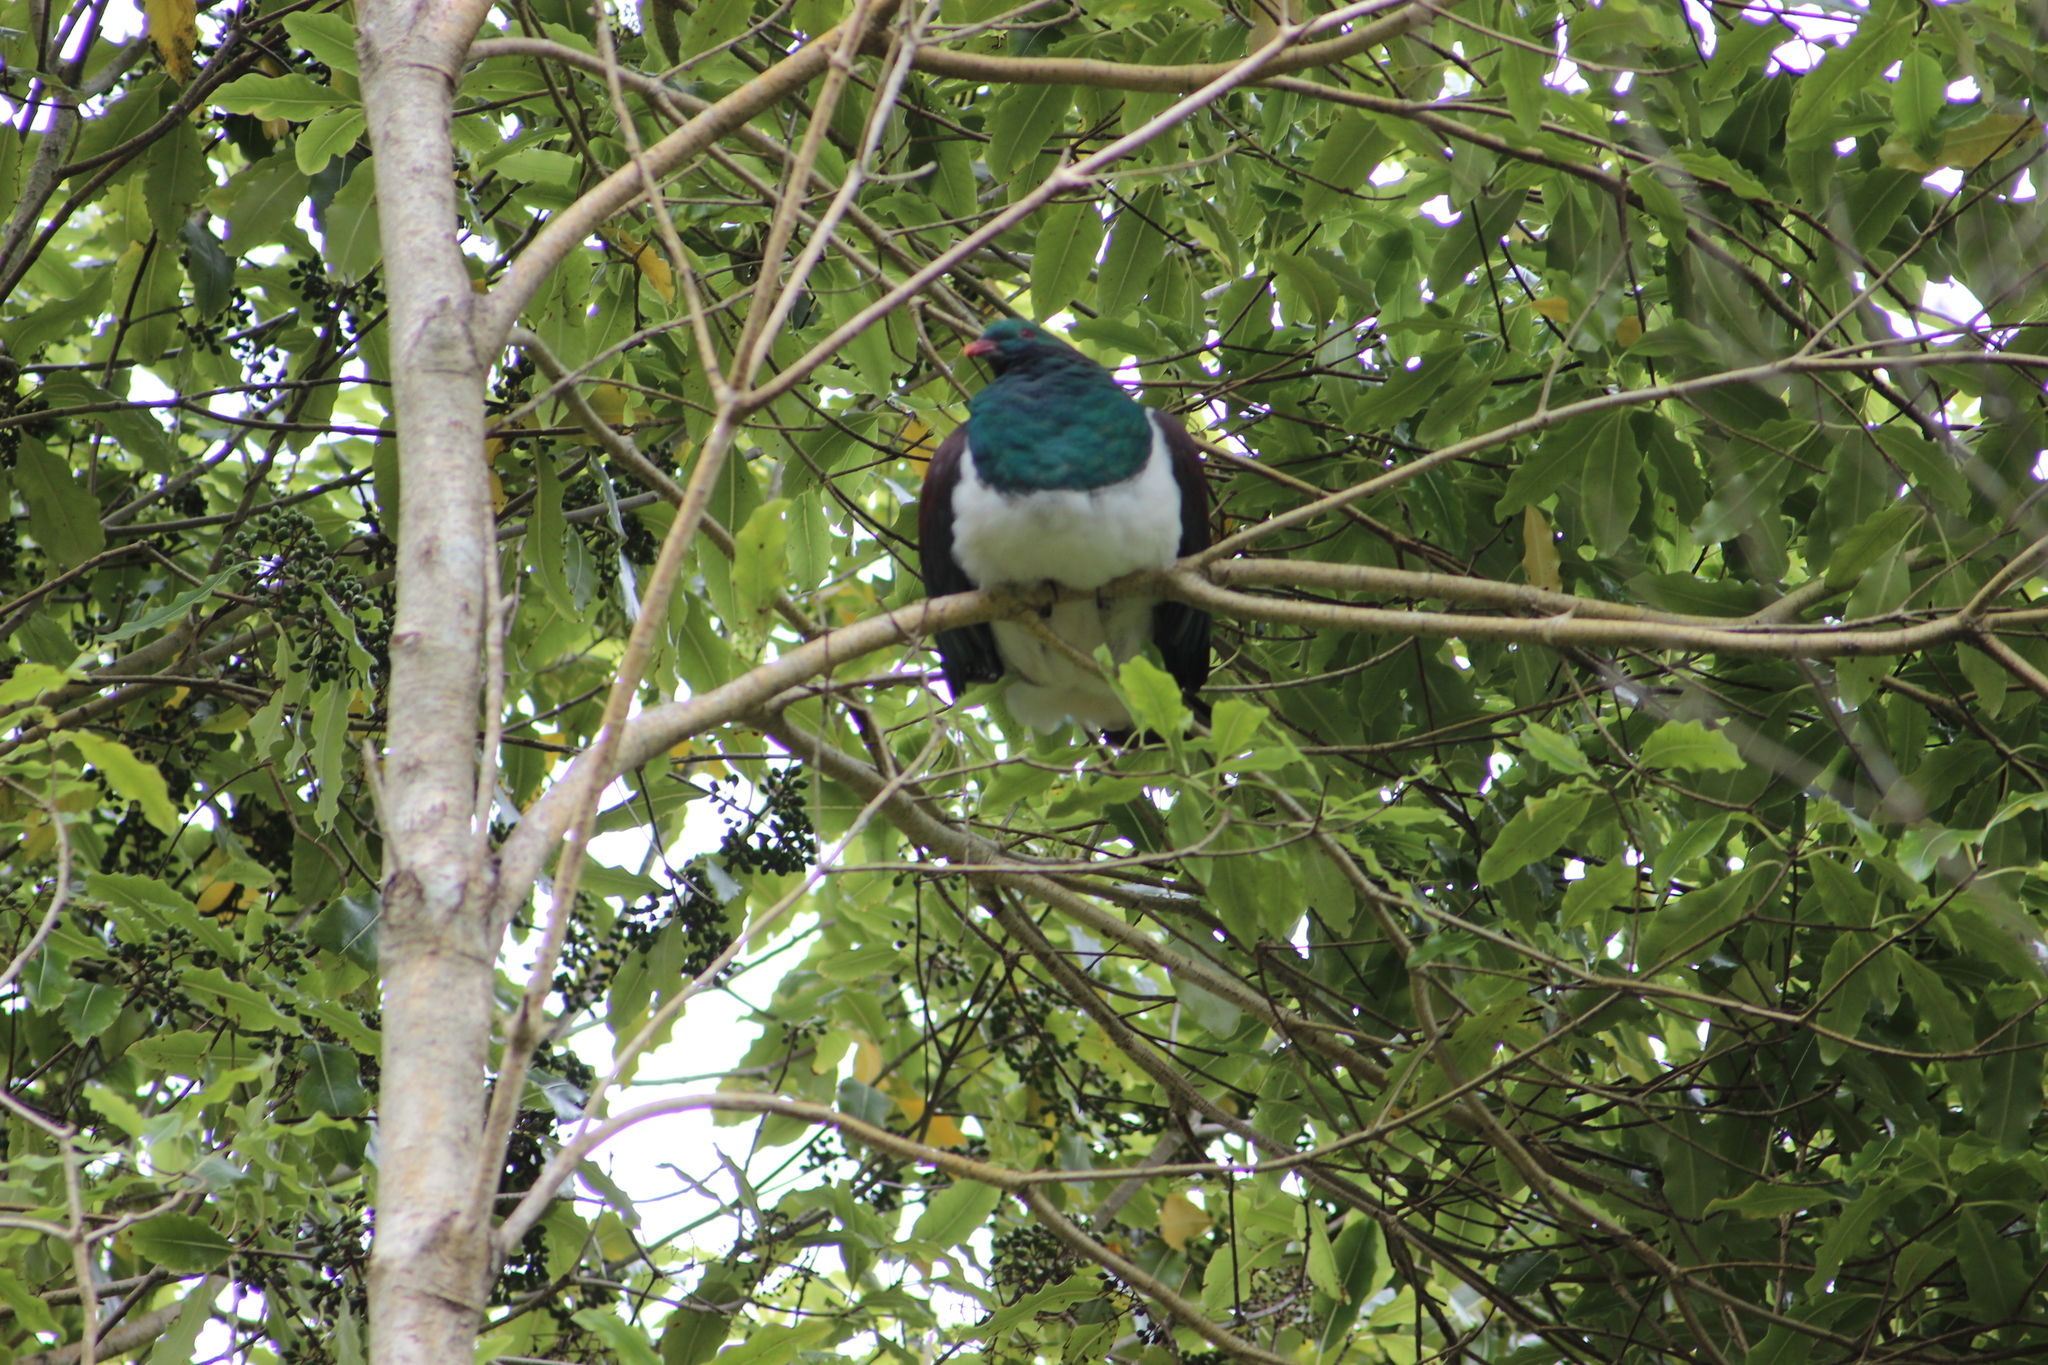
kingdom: Animalia
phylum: Chordata
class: Aves
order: Columbiformes
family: Columbidae
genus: Hemiphaga
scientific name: Hemiphaga novaeseelandiae
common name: New zealand pigeon
